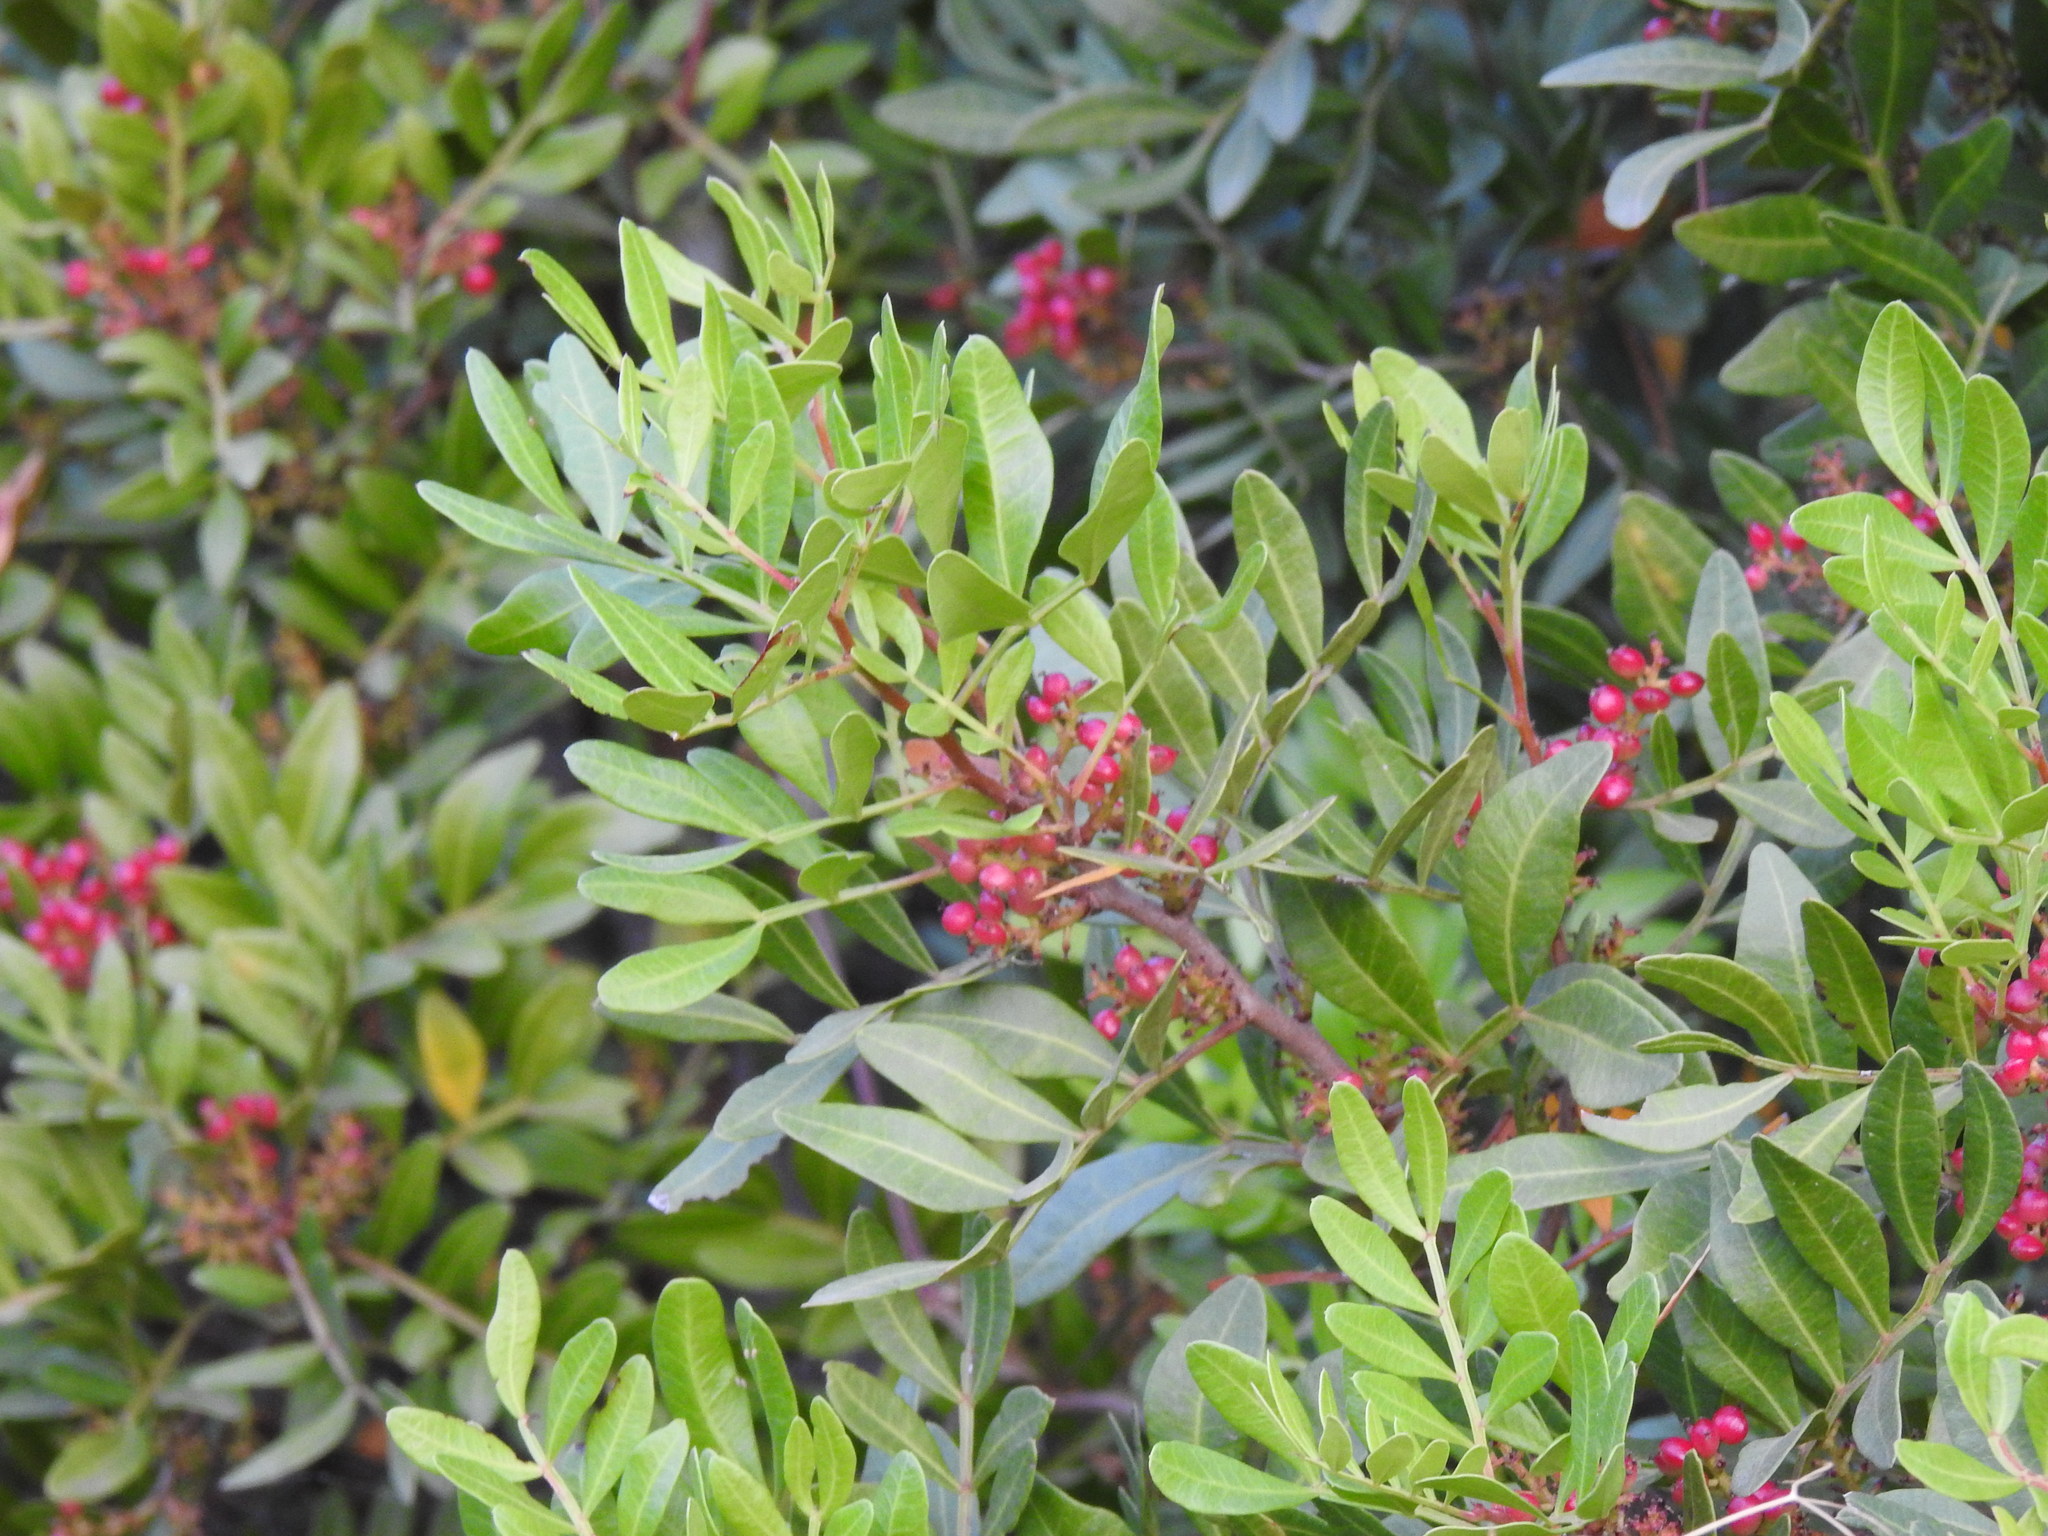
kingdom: Plantae
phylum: Tracheophyta
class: Magnoliopsida
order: Sapindales
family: Anacardiaceae
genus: Pistacia
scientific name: Pistacia lentiscus
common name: Lentisk
